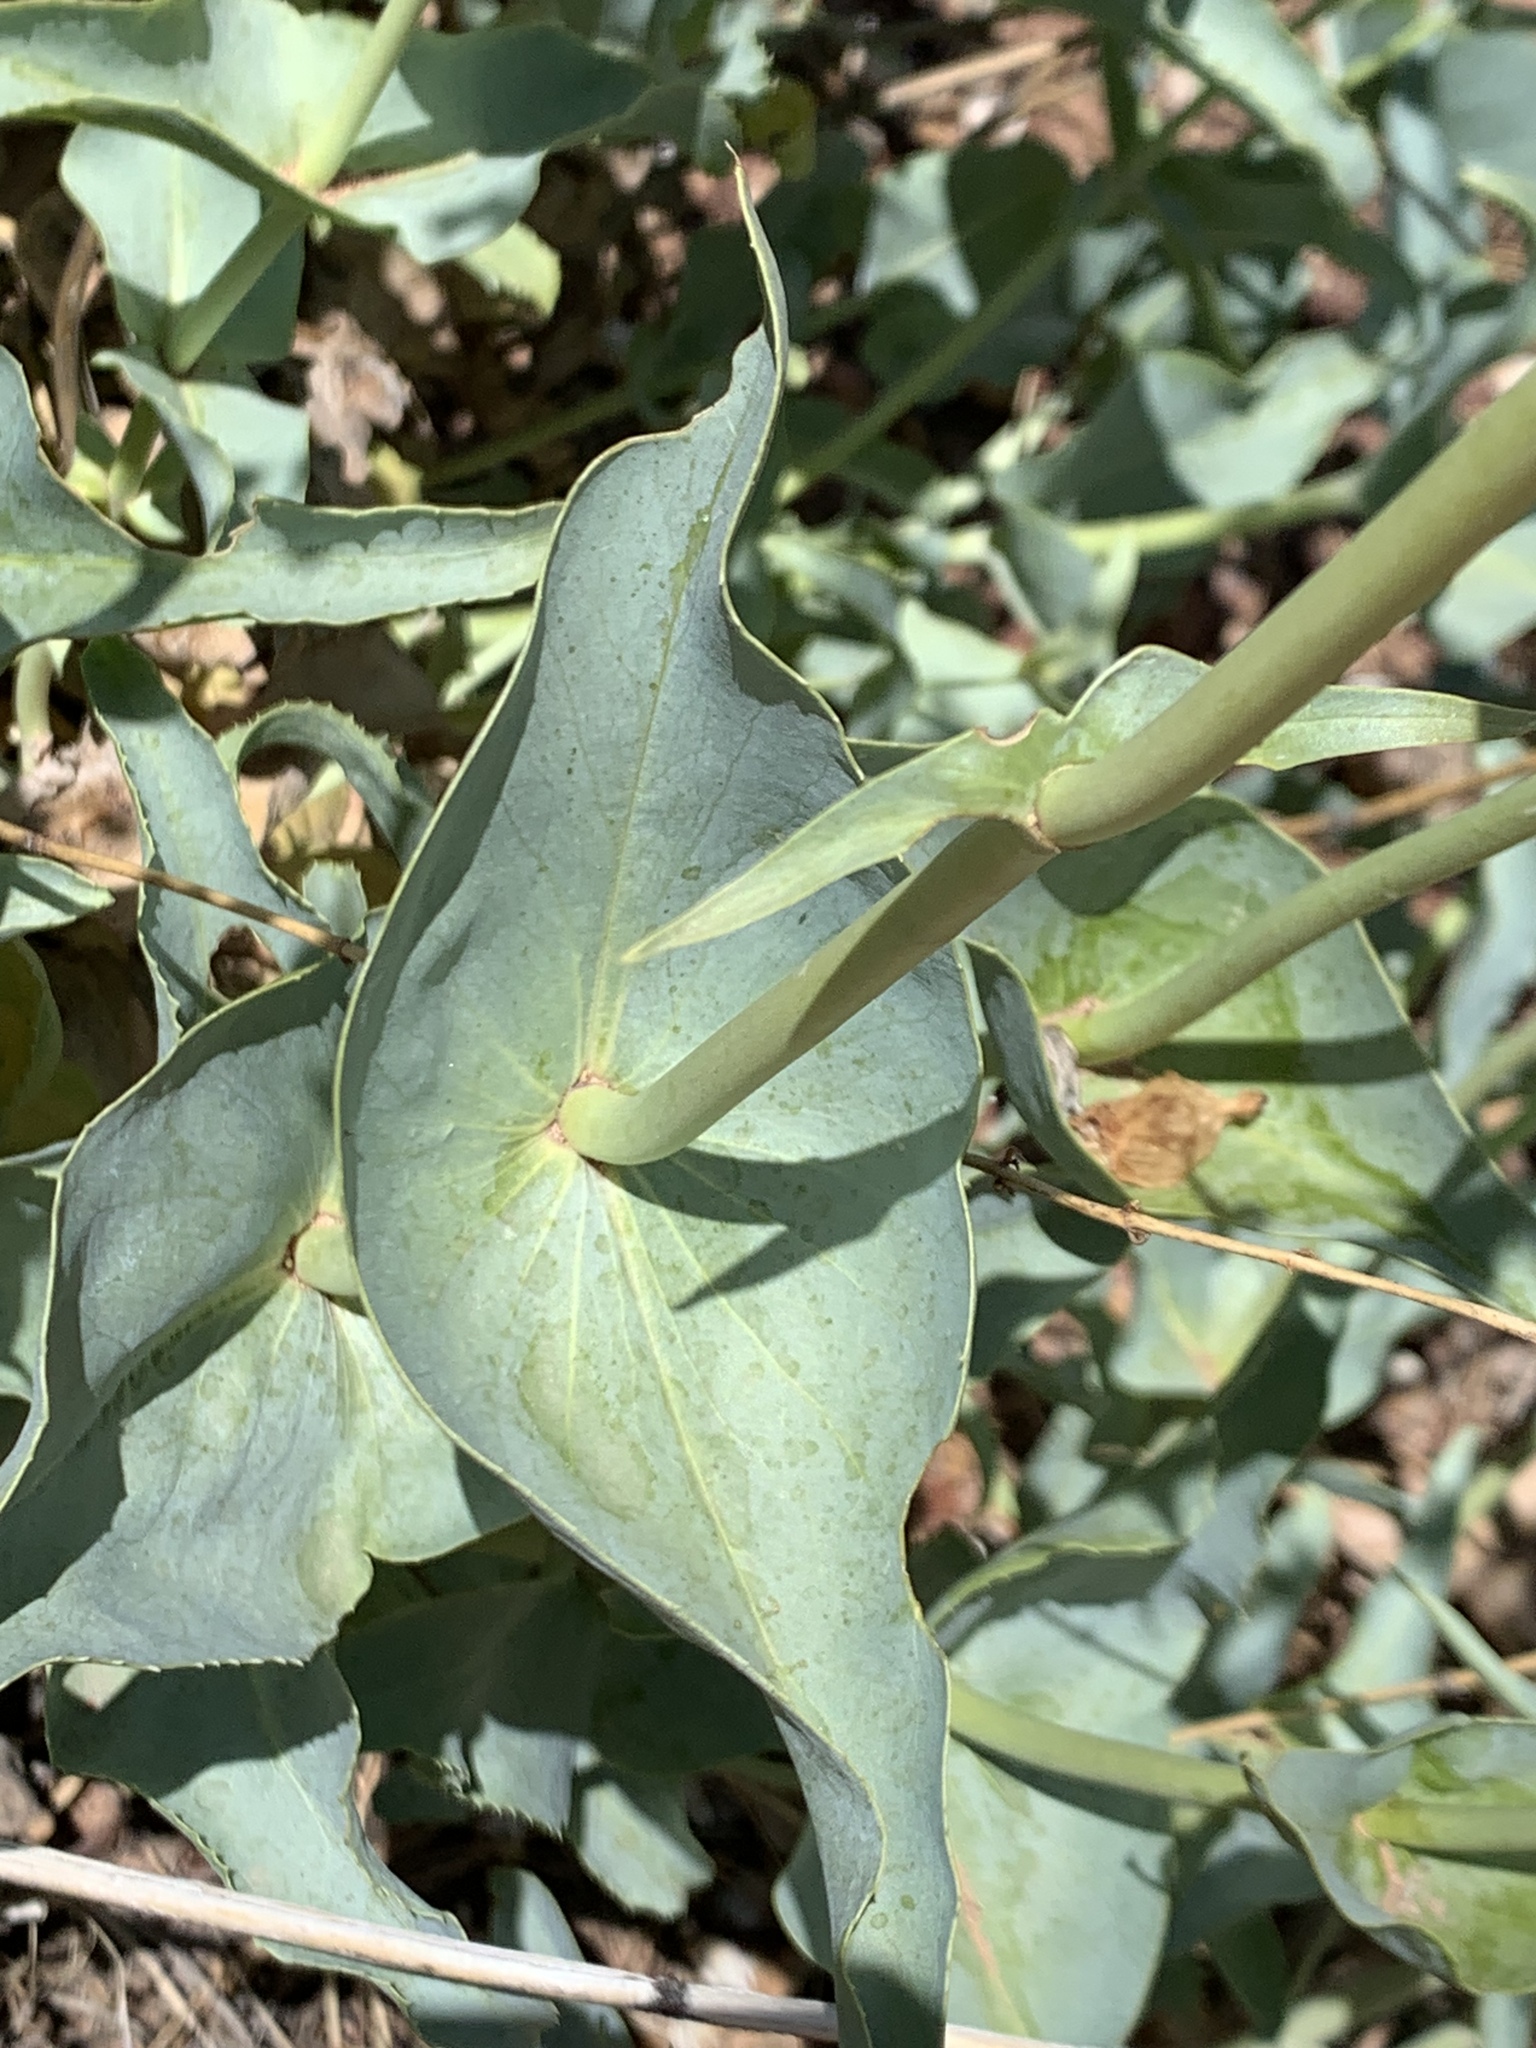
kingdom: Plantae
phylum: Tracheophyta
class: Magnoliopsida
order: Lamiales
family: Plantaginaceae
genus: Penstemon
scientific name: Penstemon palmeri
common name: Palmer penstemon
